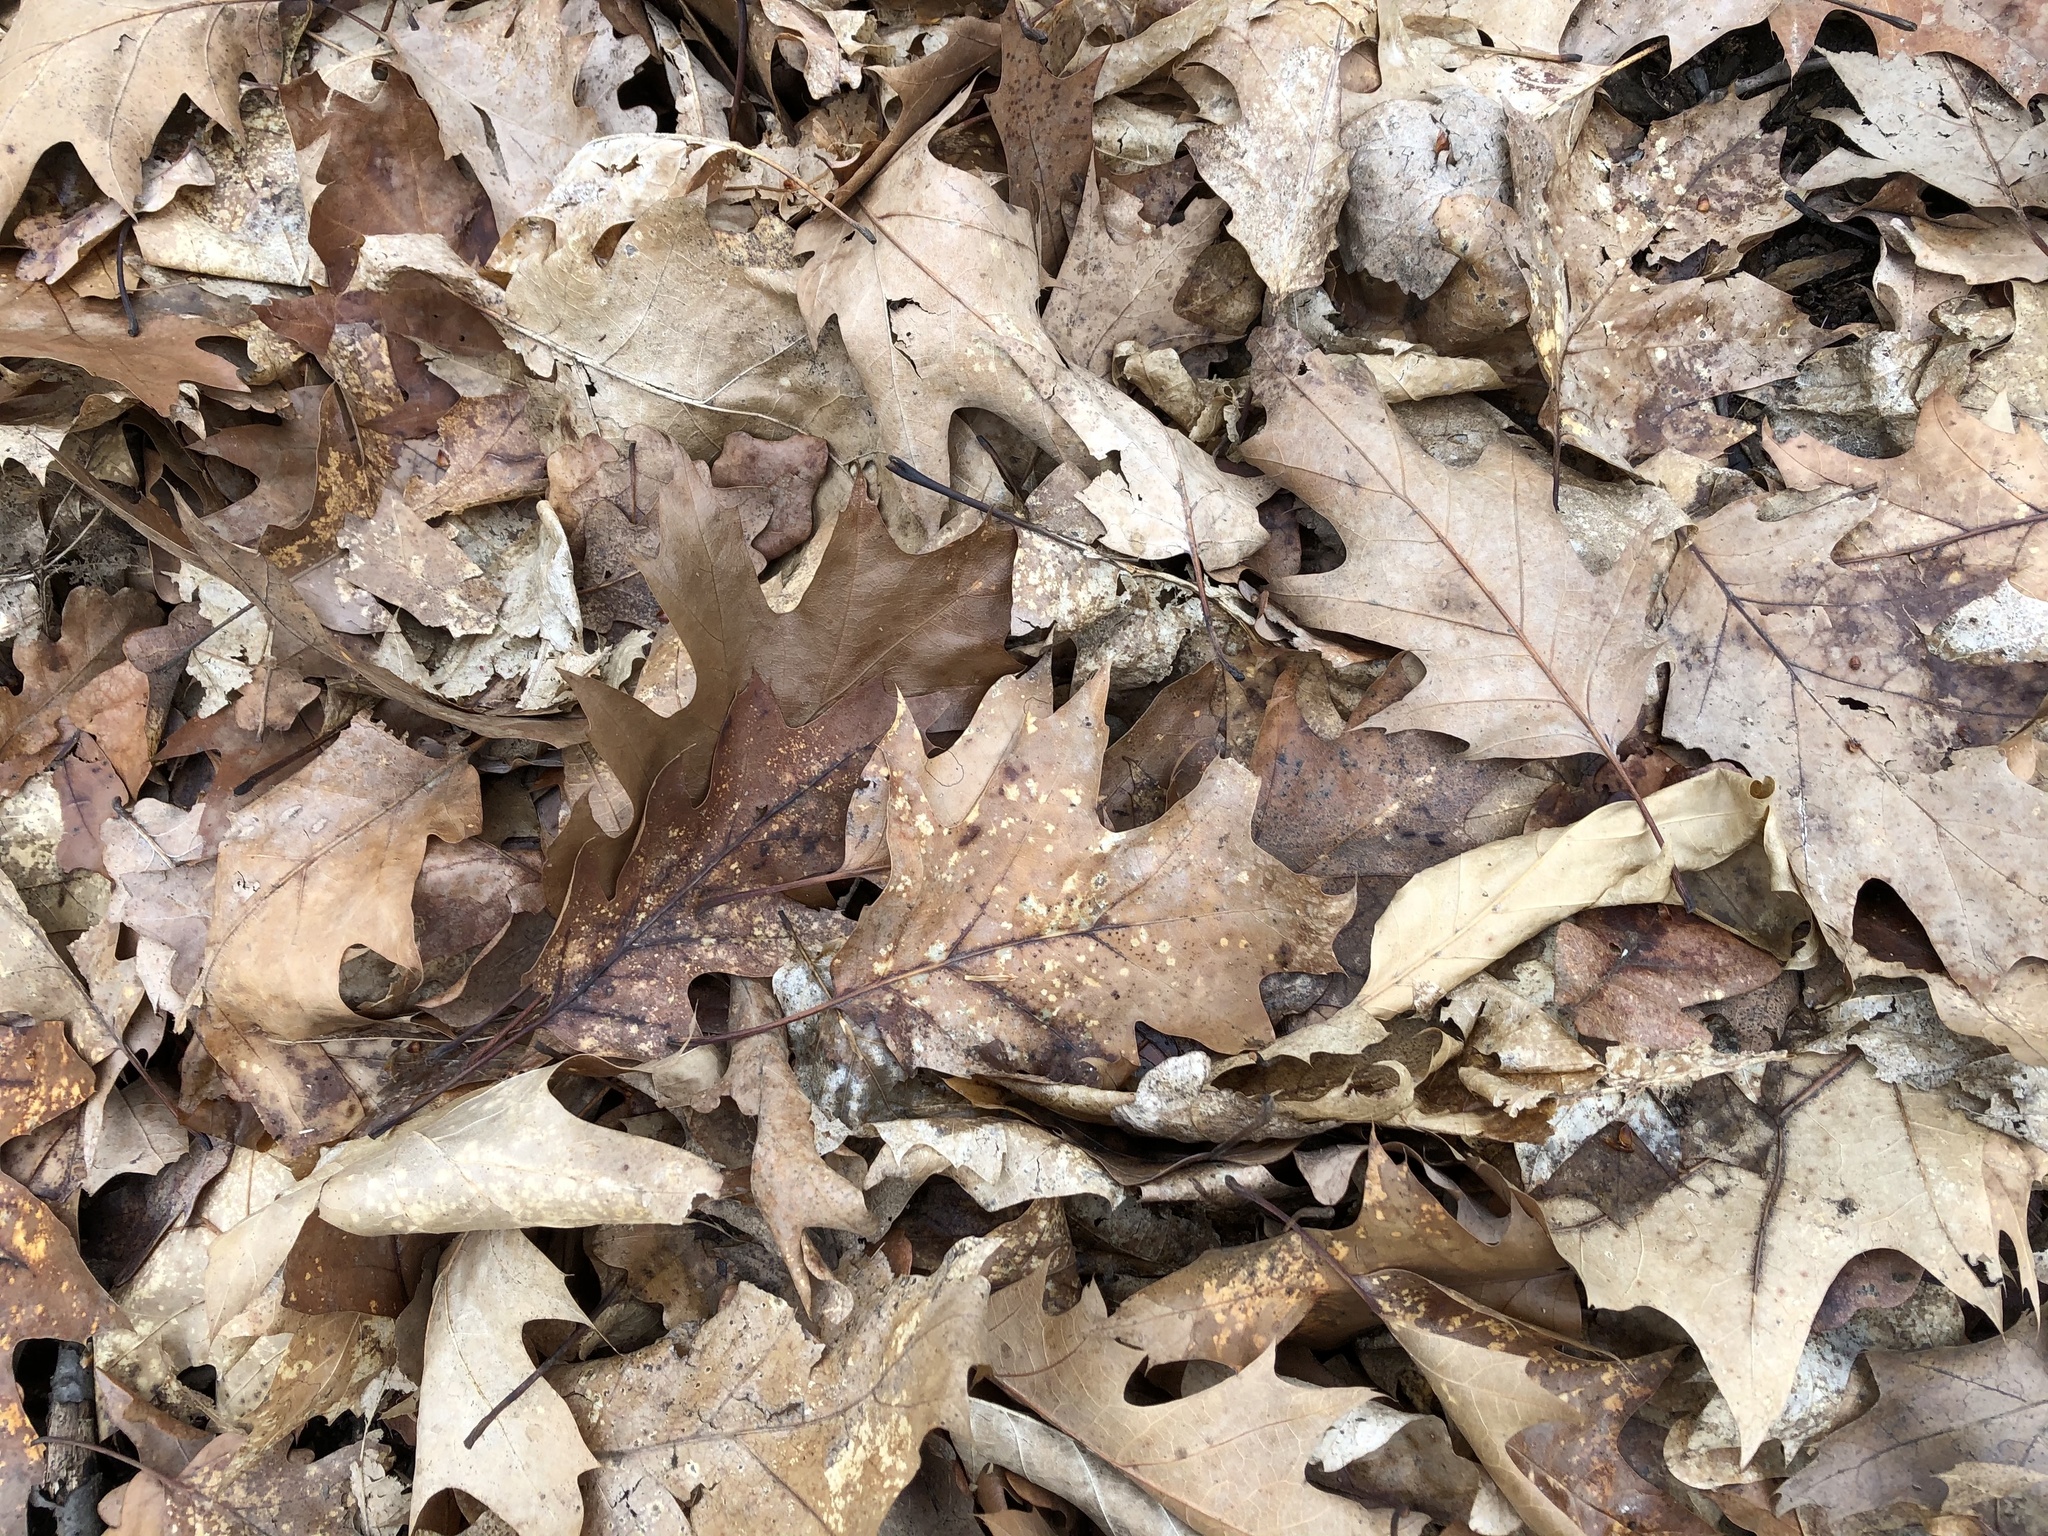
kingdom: Plantae
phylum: Tracheophyta
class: Magnoliopsida
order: Fagales
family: Fagaceae
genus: Quercus
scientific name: Quercus rubra
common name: Red oak
